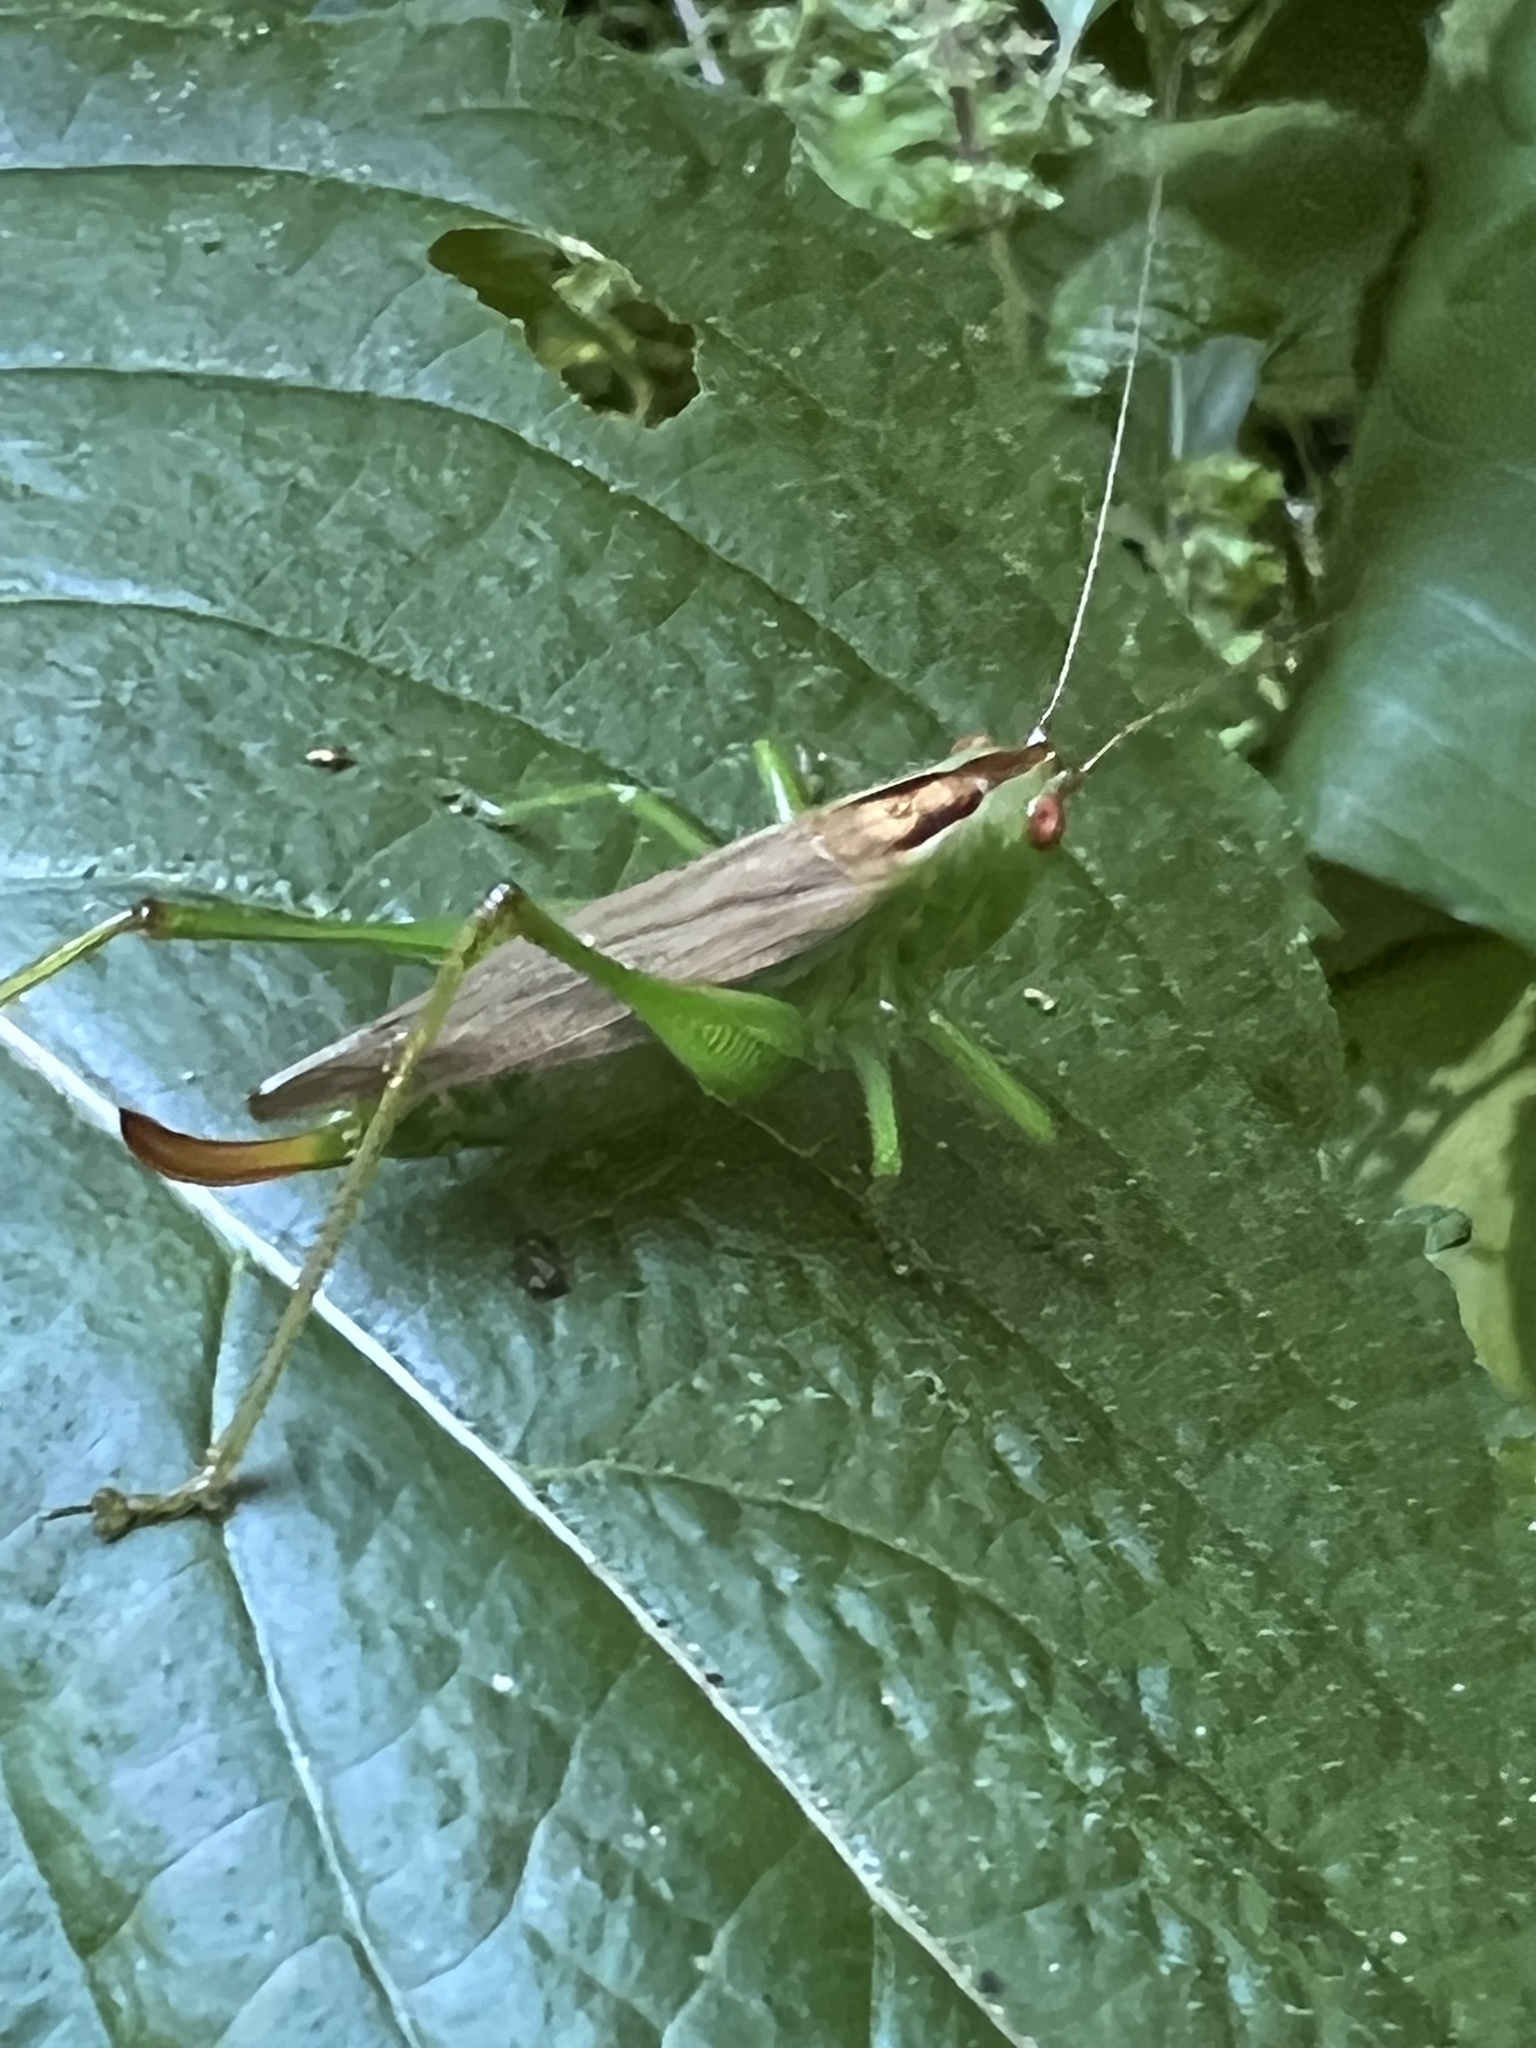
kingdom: Animalia
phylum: Arthropoda
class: Insecta
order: Orthoptera
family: Tettigoniidae
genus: Orchelimum
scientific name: Orchelimum minor
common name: Lesser pine meadow katydid
